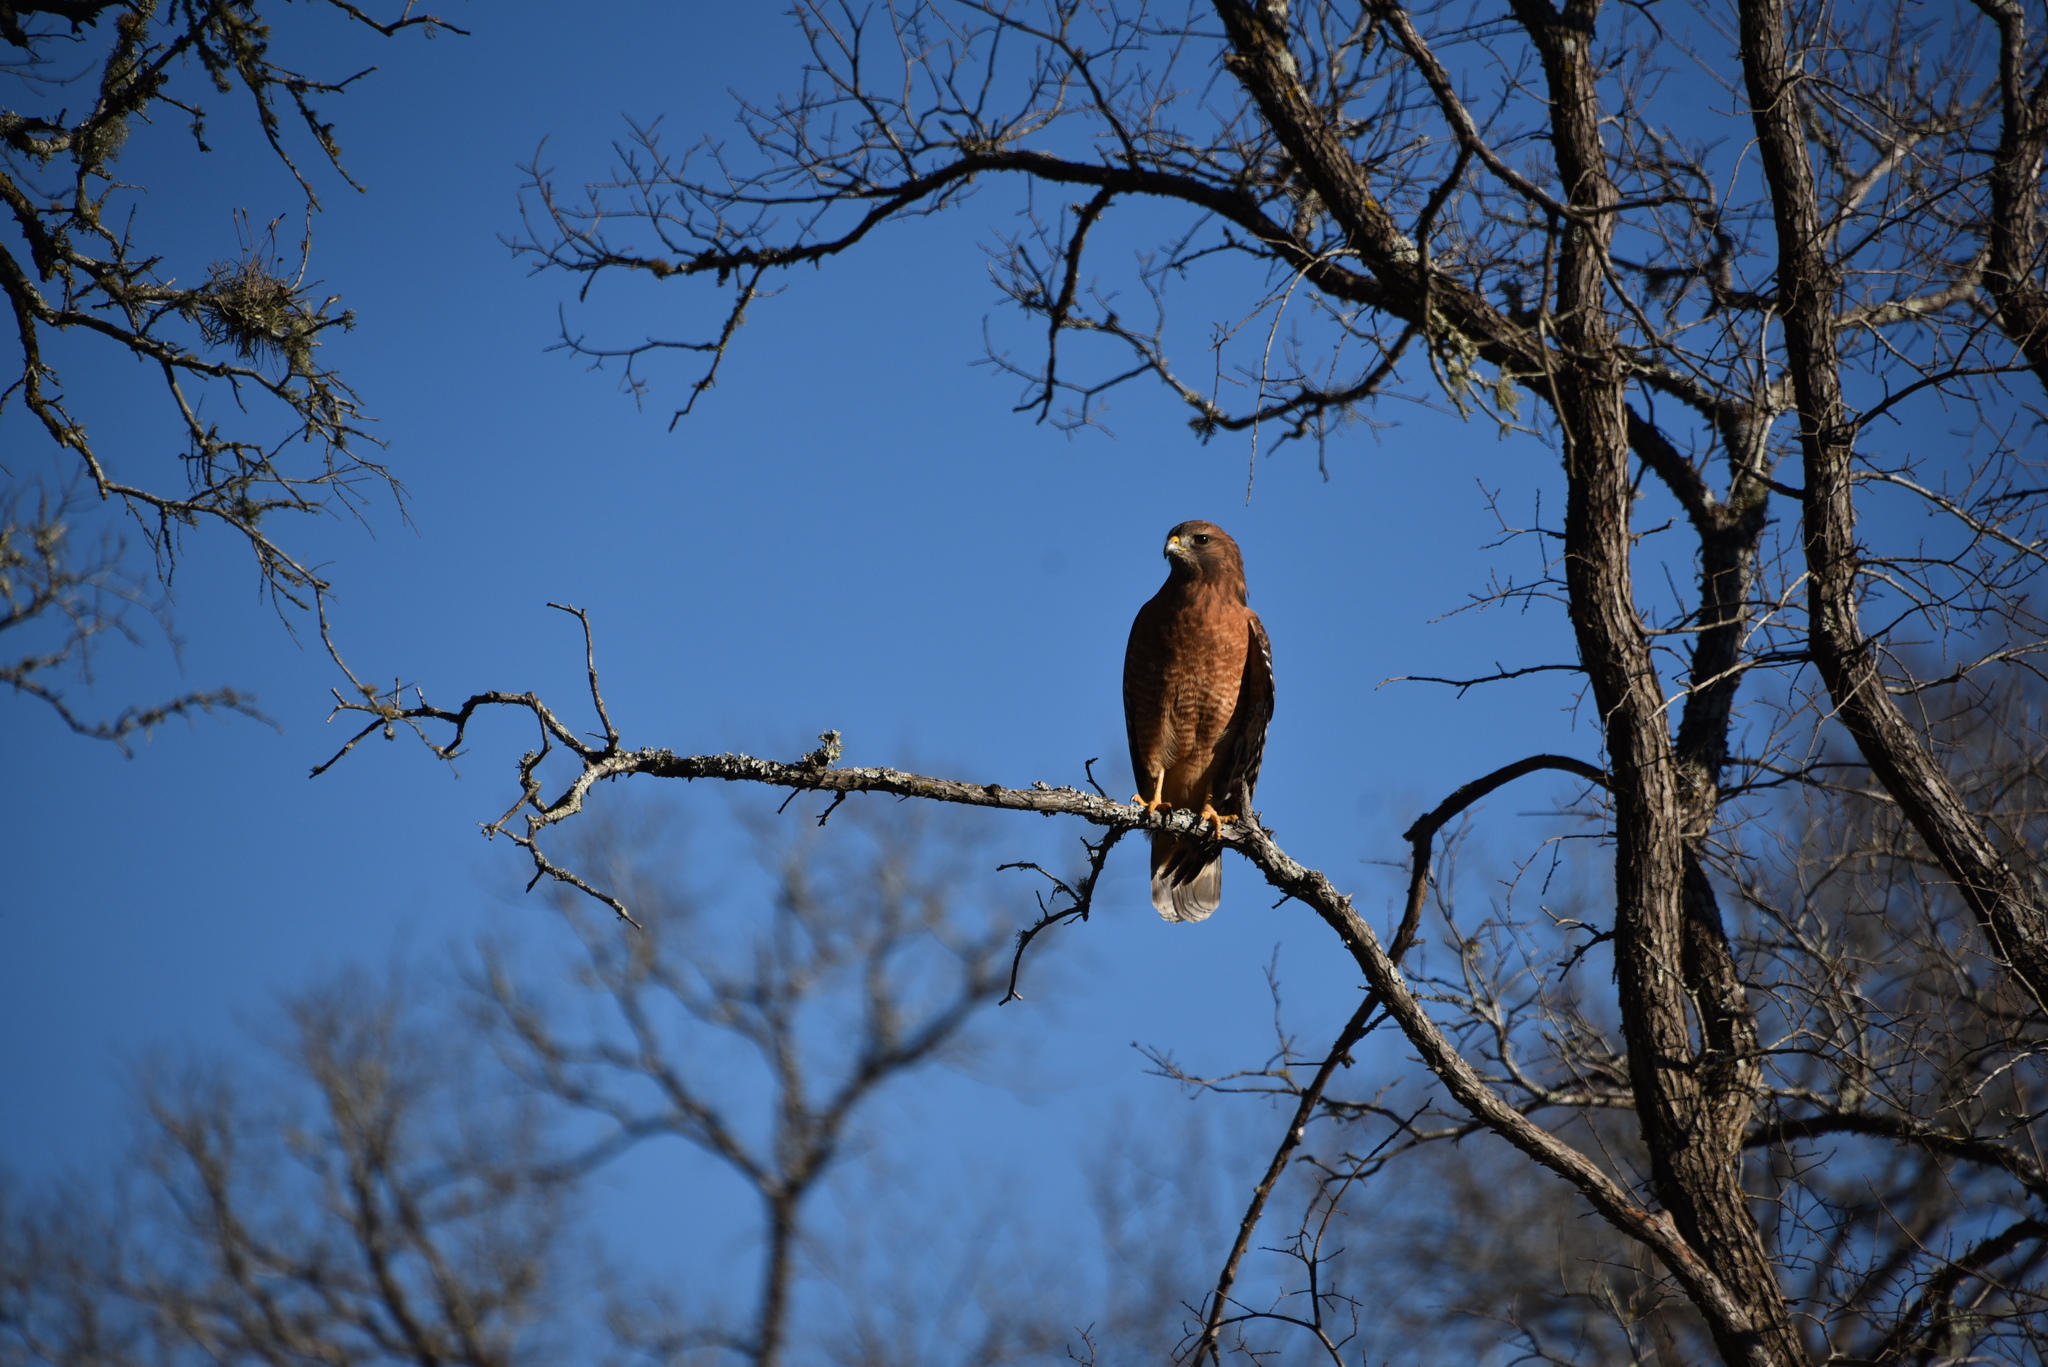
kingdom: Animalia
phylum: Chordata
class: Aves
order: Accipitriformes
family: Accipitridae
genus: Buteo
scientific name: Buteo lineatus
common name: Red-shouldered hawk
